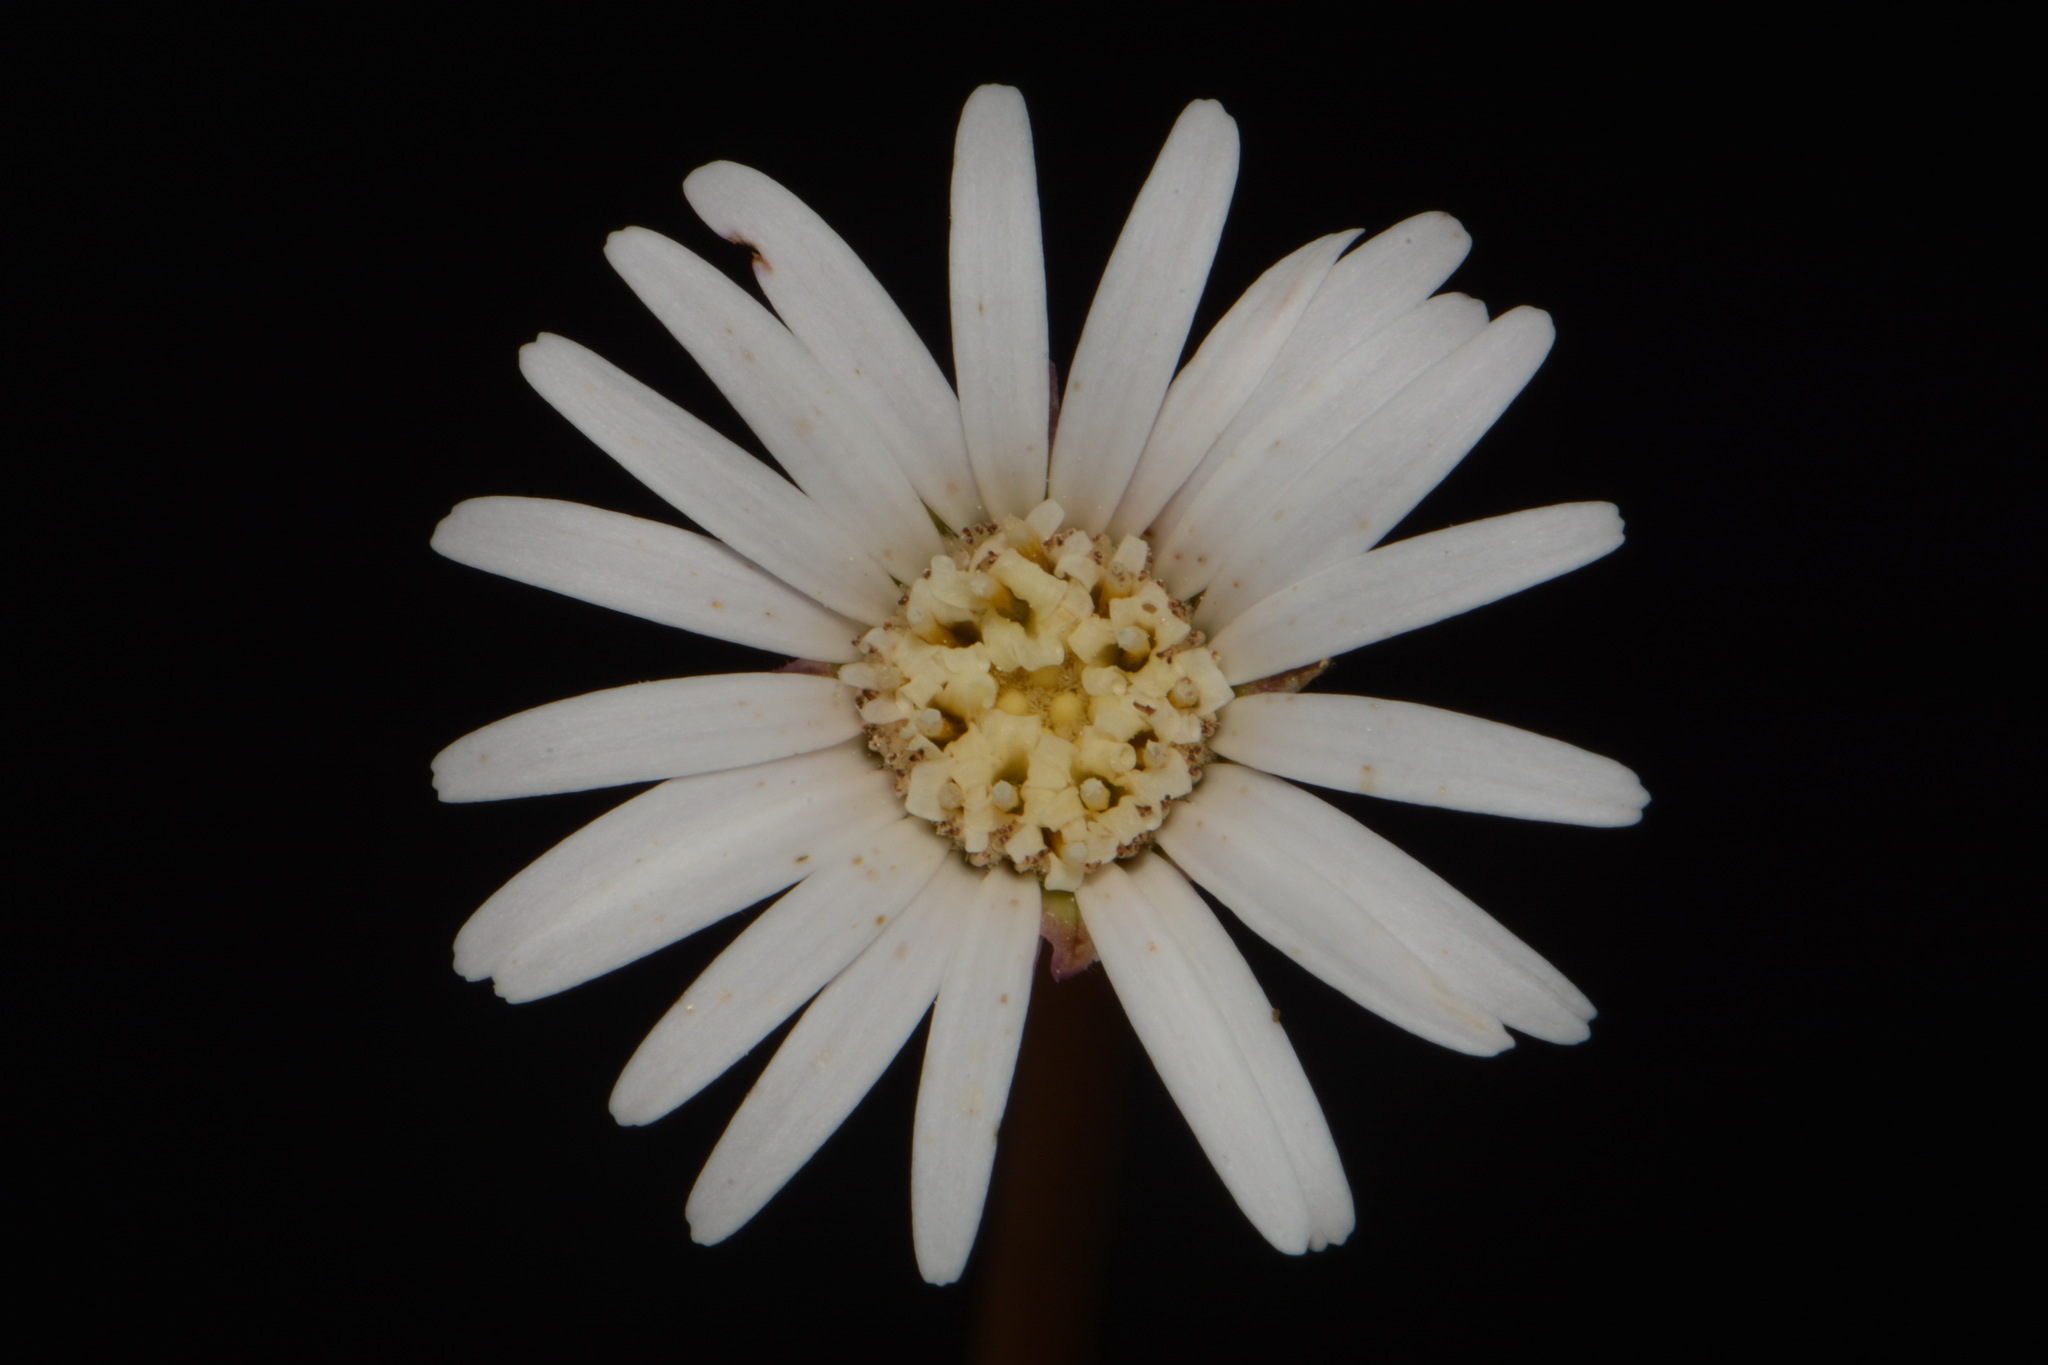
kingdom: Plantae
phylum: Tracheophyta
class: Magnoliopsida
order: Asterales
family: Asteraceae
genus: Chaptalia
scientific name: Chaptalia tomentosa
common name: Woolly sunbonnet
